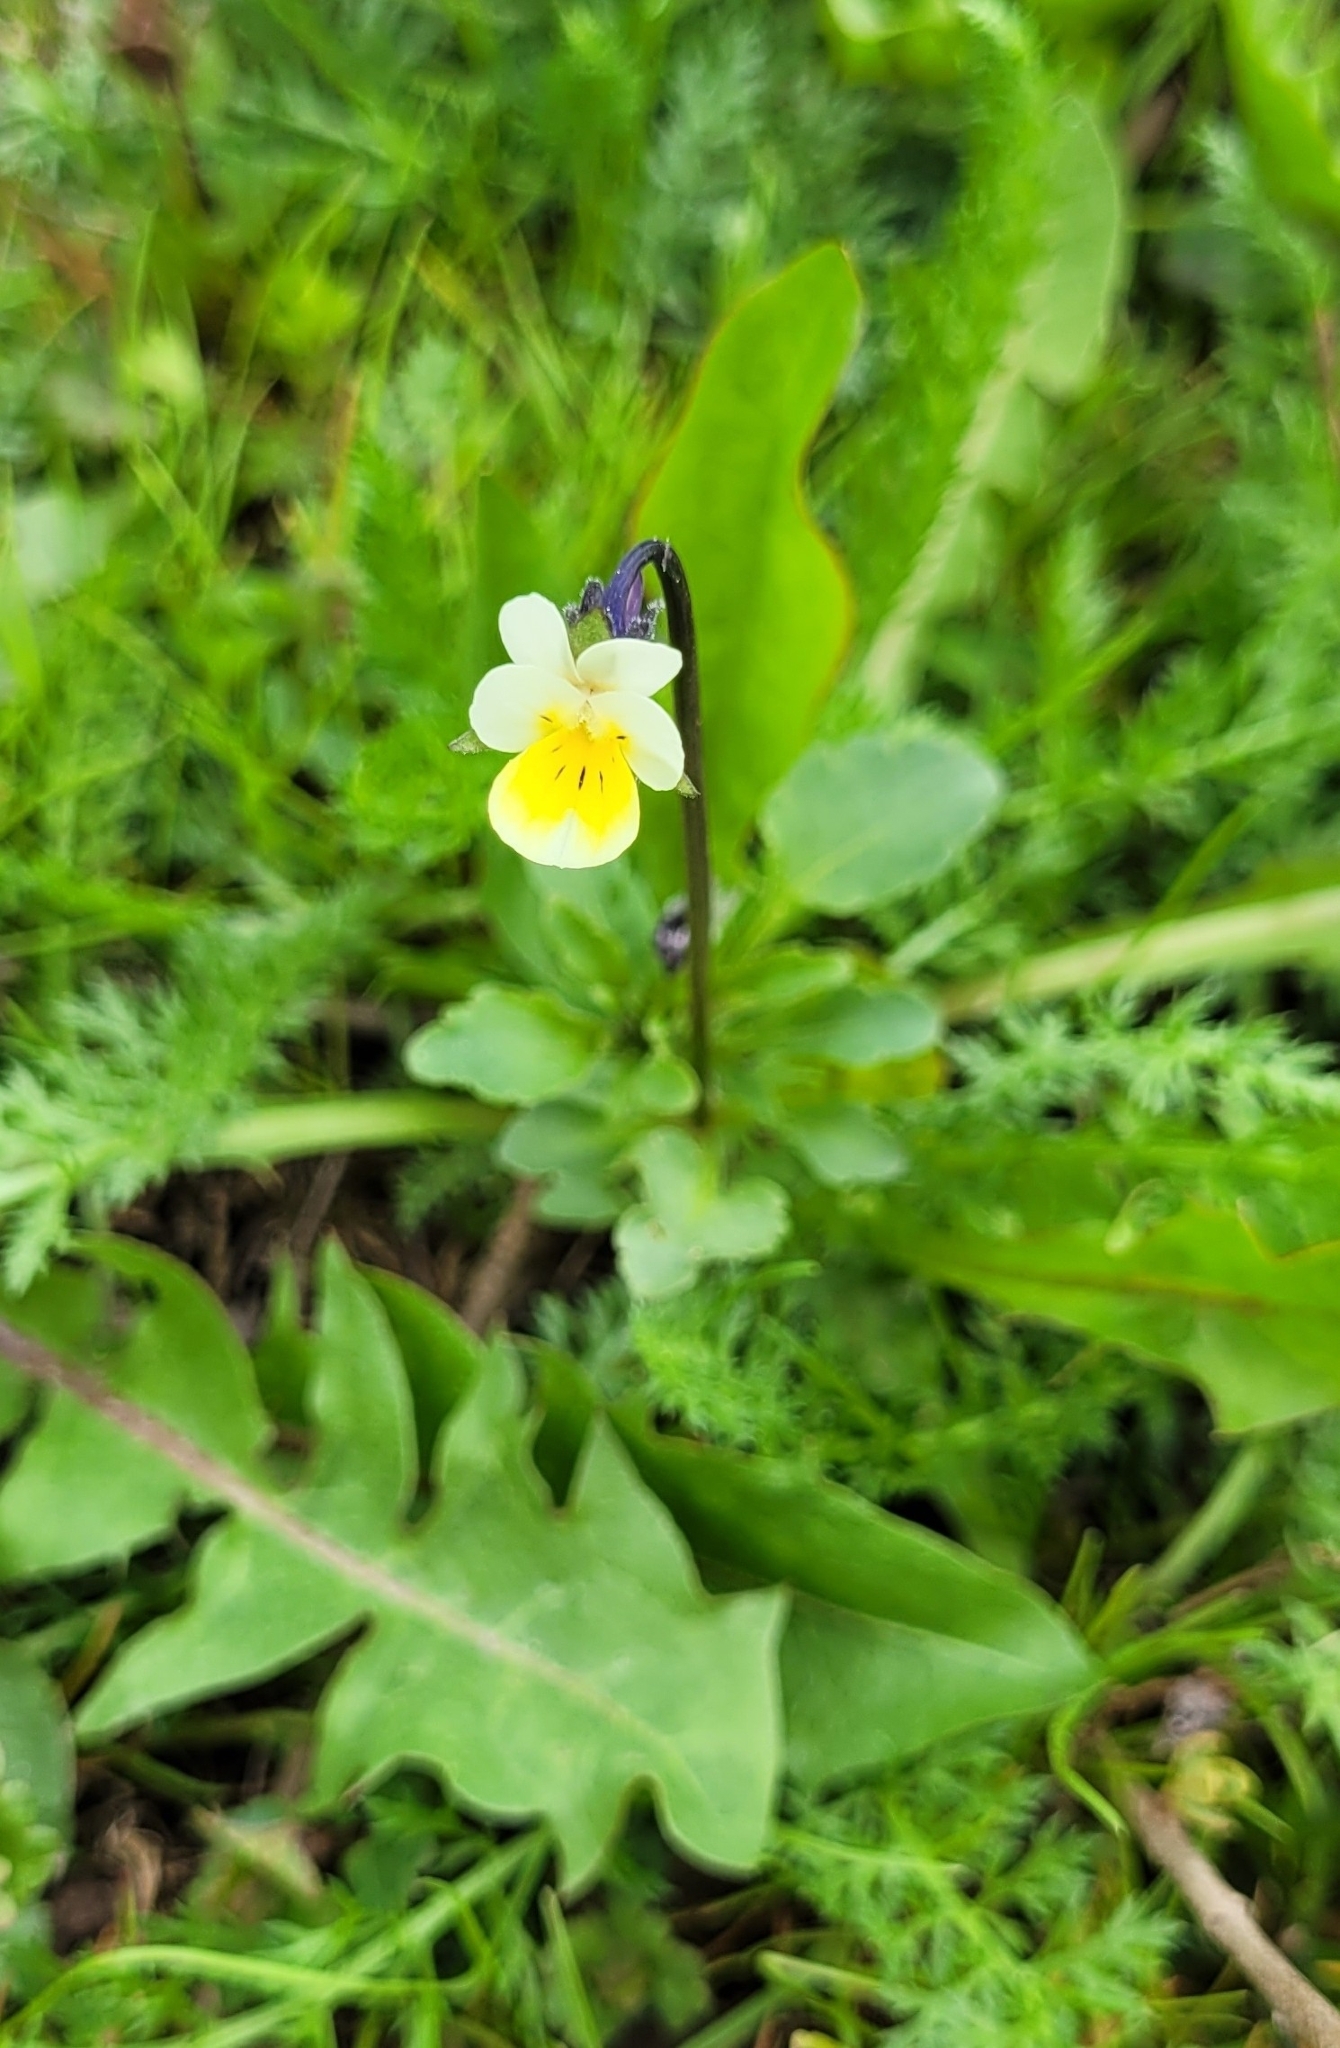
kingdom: Plantae
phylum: Tracheophyta
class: Magnoliopsida
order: Malpighiales
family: Violaceae
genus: Viola
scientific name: Viola arvensis
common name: Field pansy
